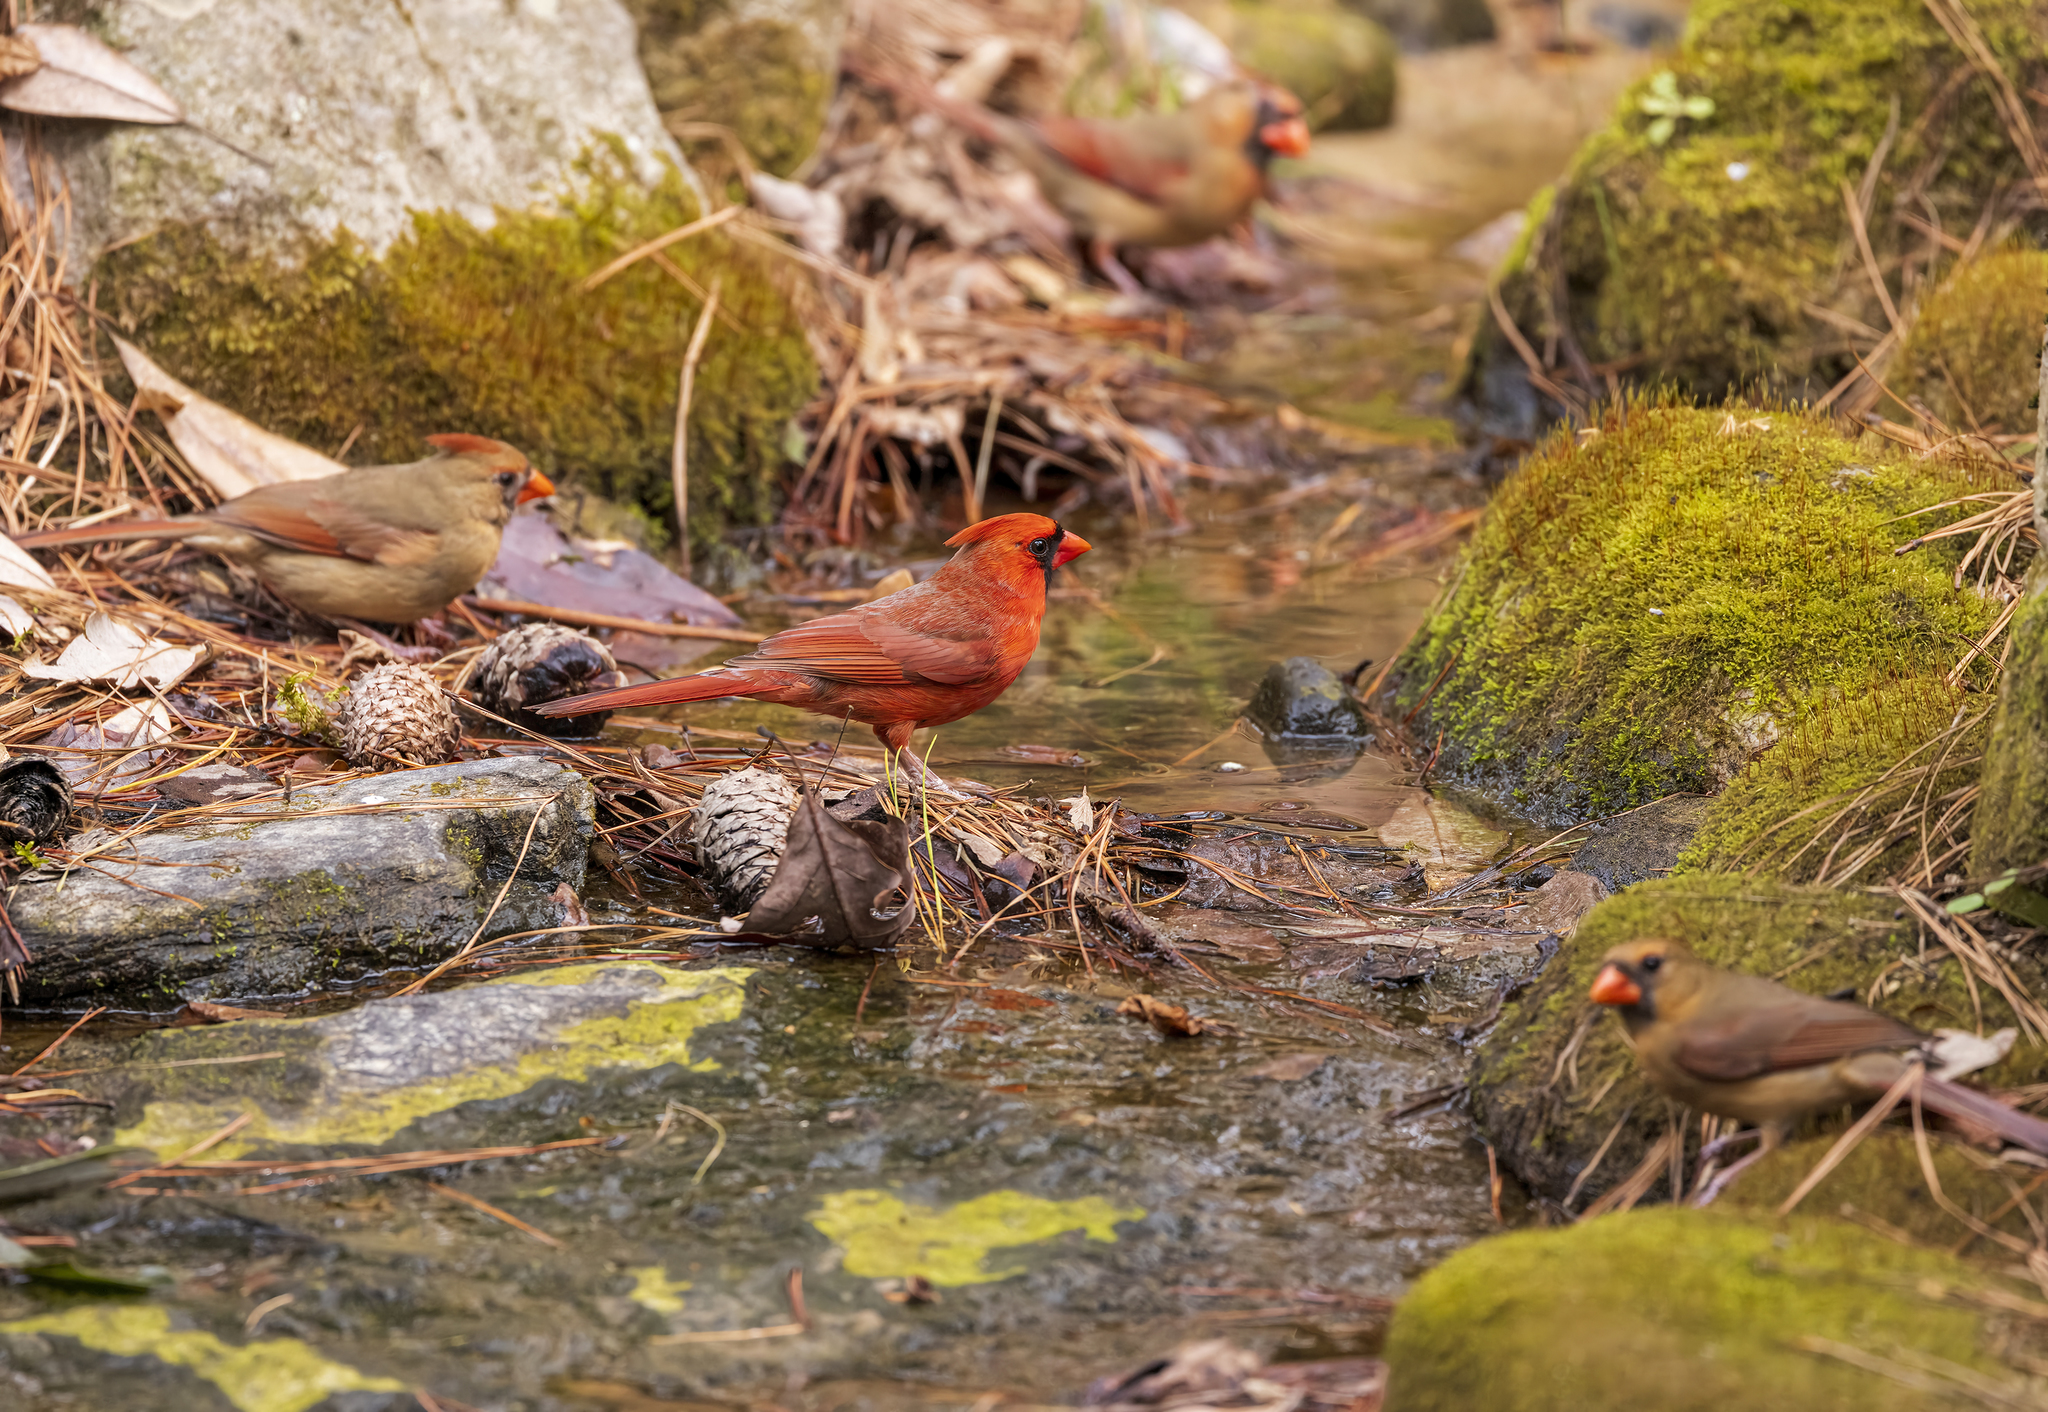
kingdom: Animalia
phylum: Chordata
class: Aves
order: Passeriformes
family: Cardinalidae
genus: Cardinalis
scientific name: Cardinalis cardinalis
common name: Northern cardinal
